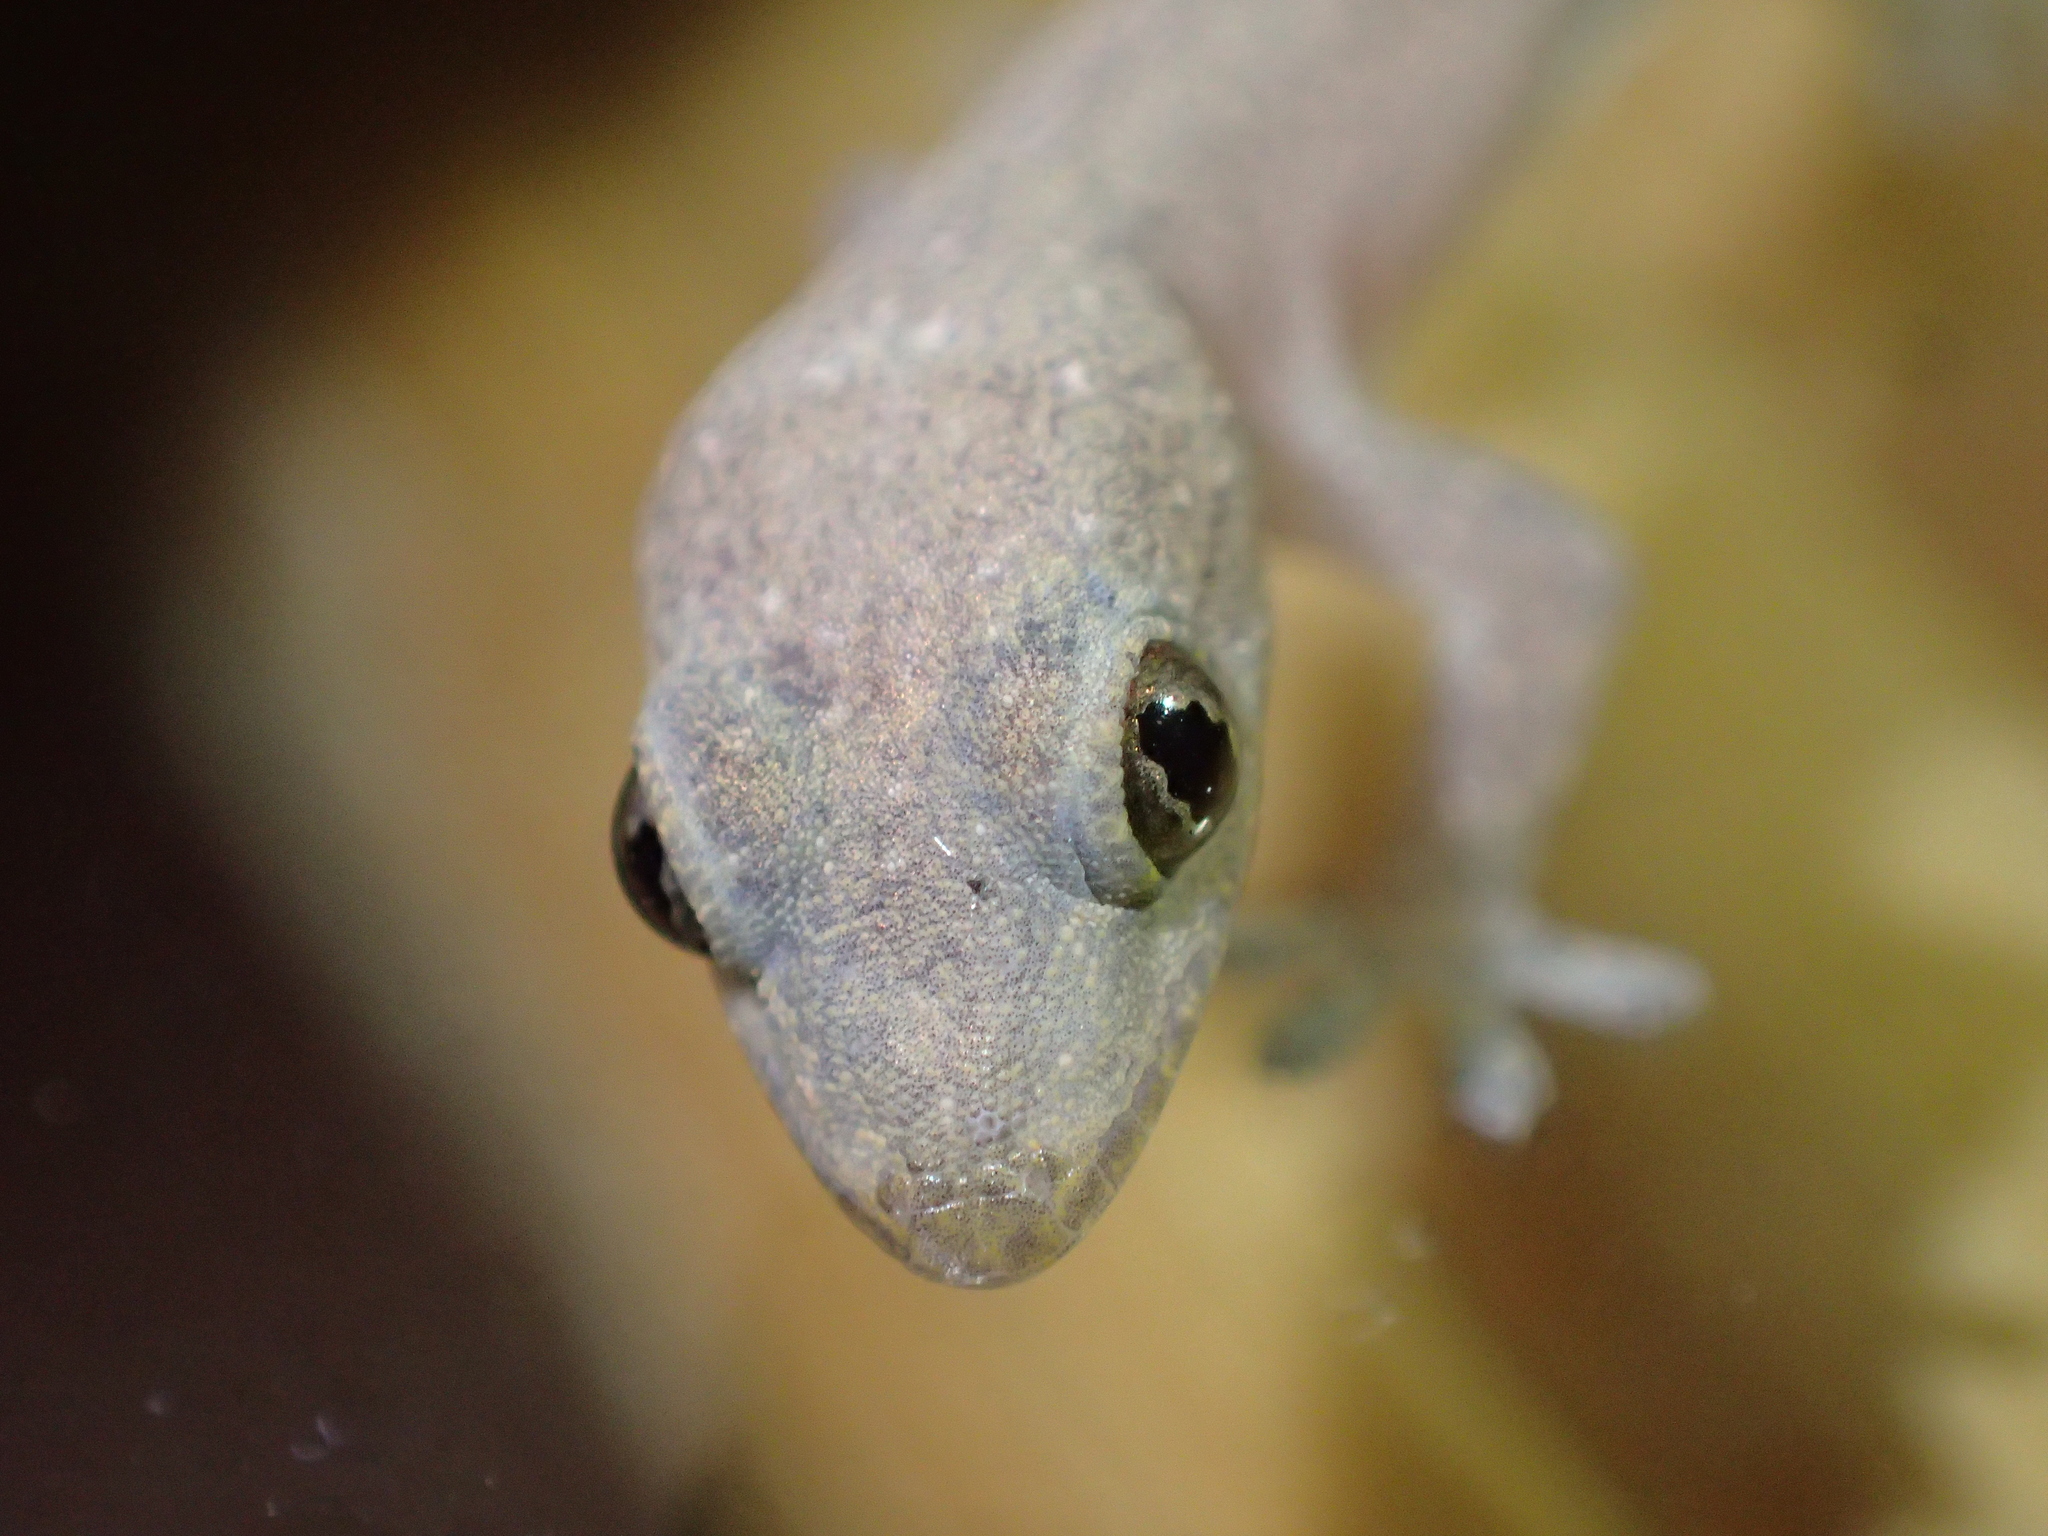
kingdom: Animalia
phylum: Chordata
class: Squamata
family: Gekkonidae
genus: Hemidactylus
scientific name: Hemidactylus frenatus
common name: Common house gecko
